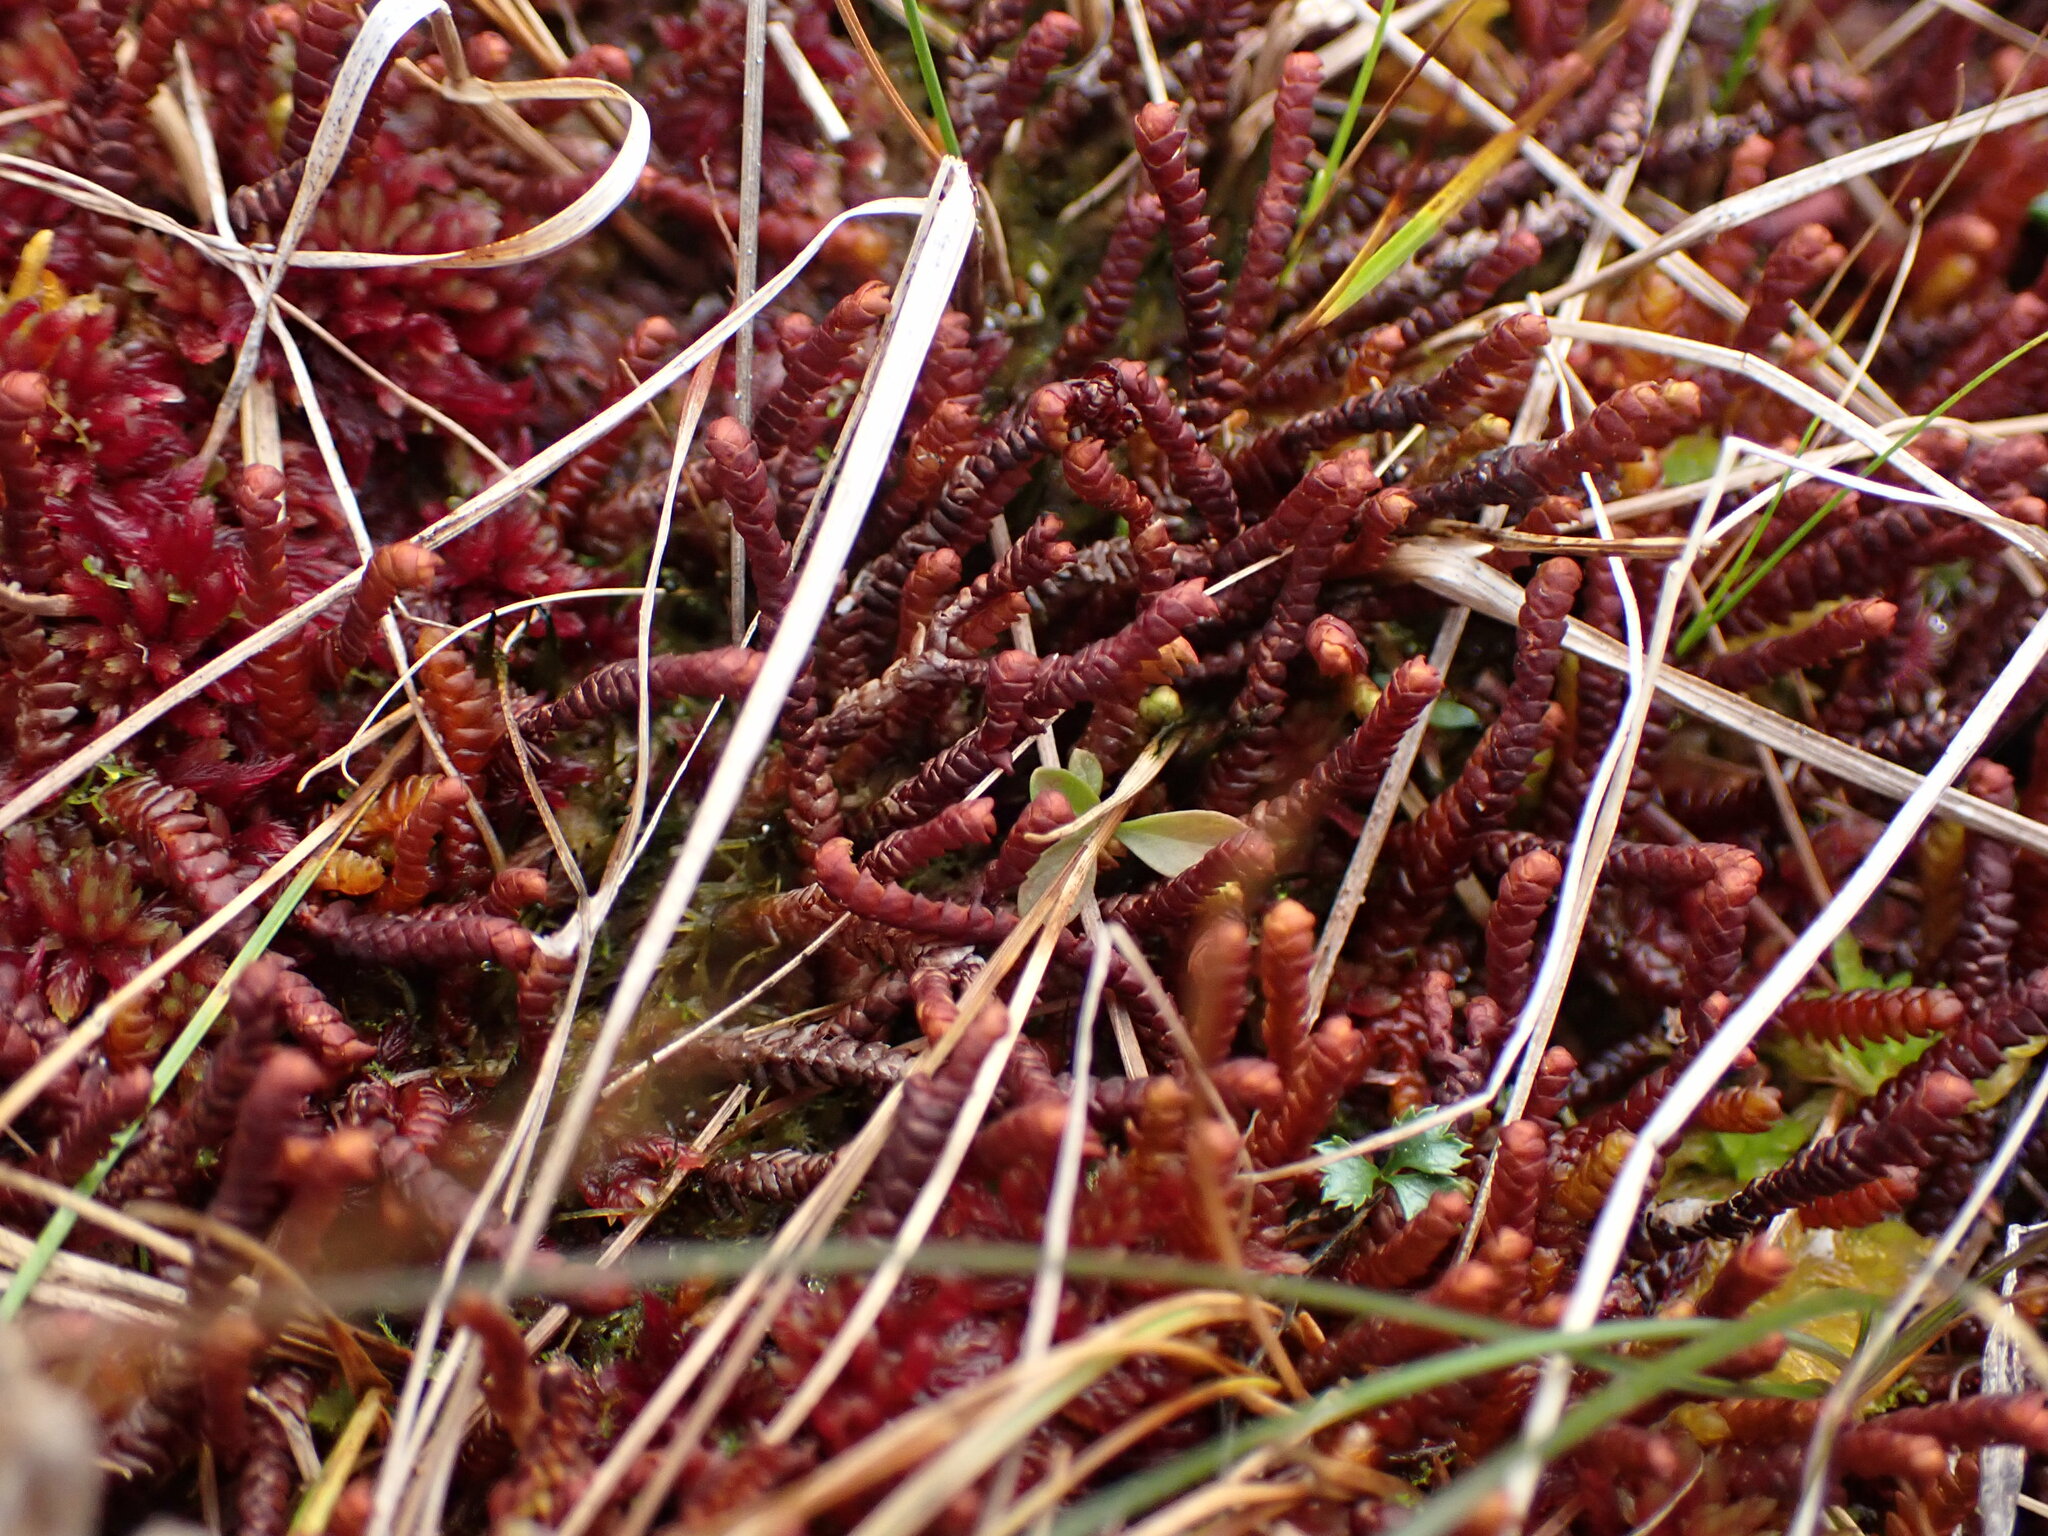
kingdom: Plantae
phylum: Marchantiophyta
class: Jungermanniopsida
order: Pleuroziales
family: Pleuroziaceae
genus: Pleurozia
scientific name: Pleurozia purpurea
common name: Purple spoonwort
